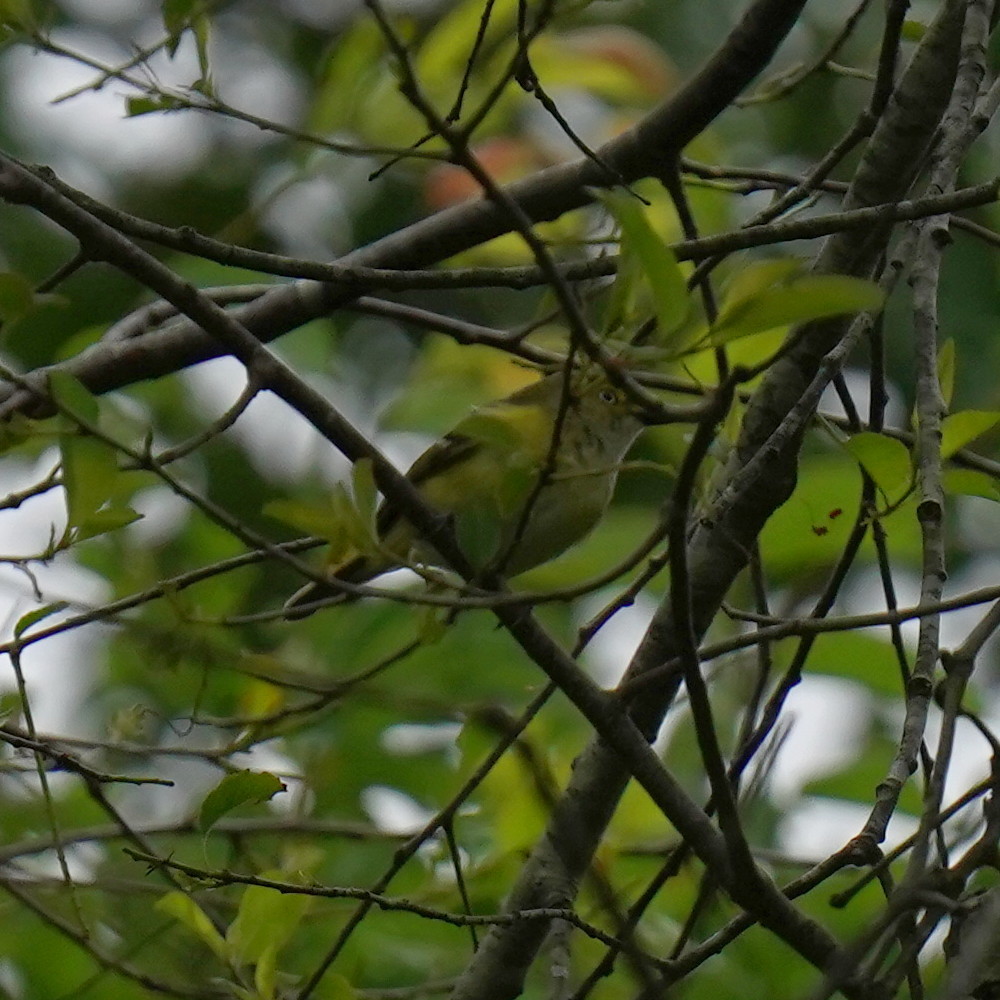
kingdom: Animalia
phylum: Chordata
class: Aves
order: Passeriformes
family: Vireonidae
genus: Vireo
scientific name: Vireo griseus
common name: White-eyed vireo
